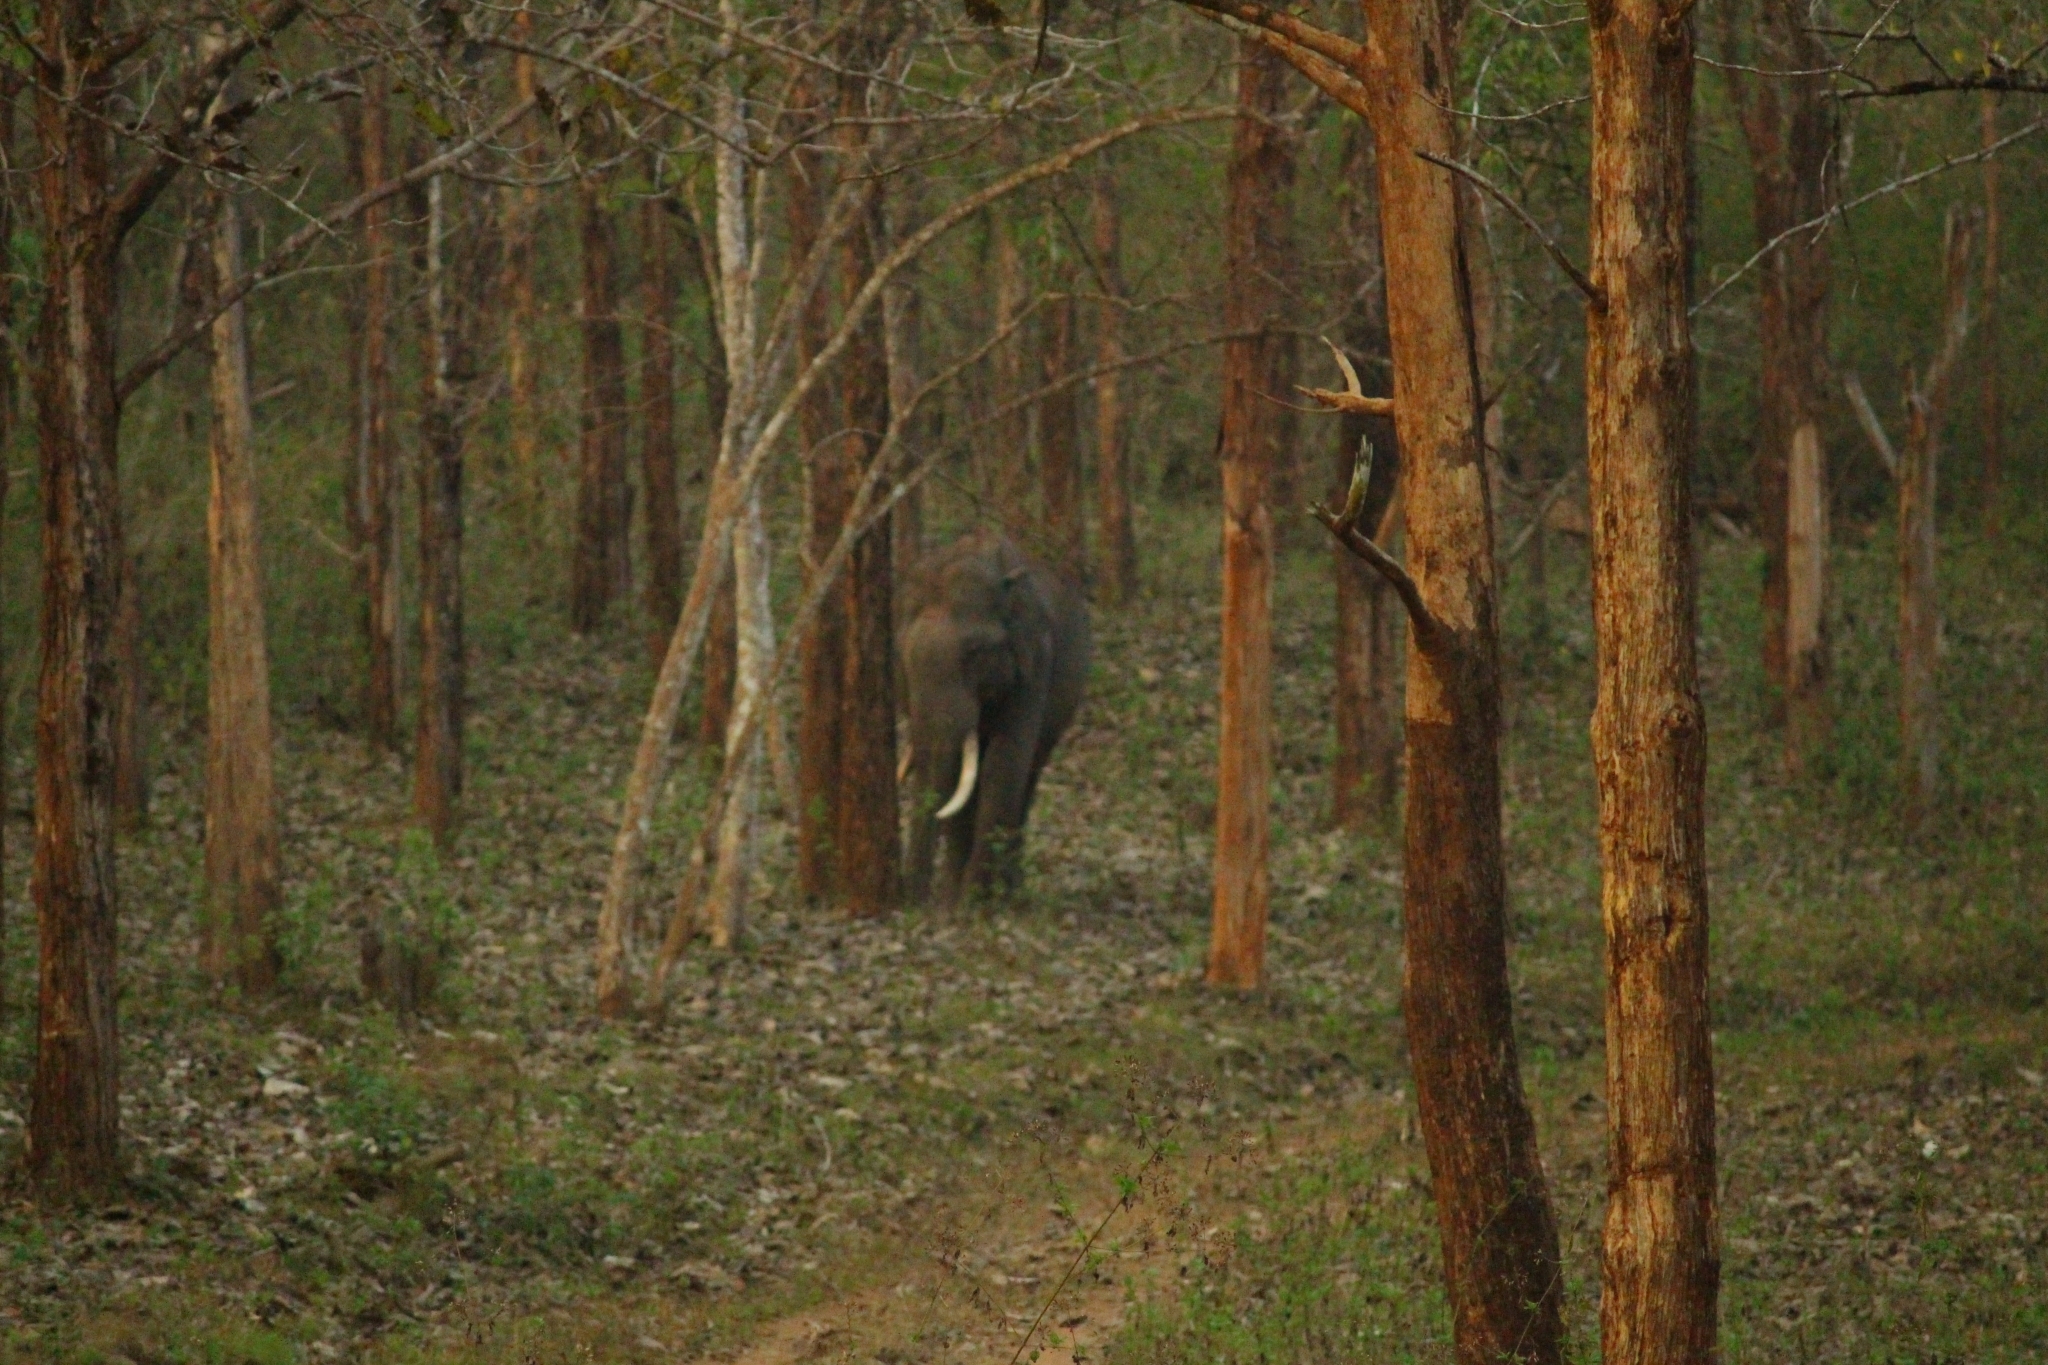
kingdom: Animalia
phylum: Chordata
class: Mammalia
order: Proboscidea
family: Elephantidae
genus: Elephas
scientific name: Elephas maximus
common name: Asian elephant
